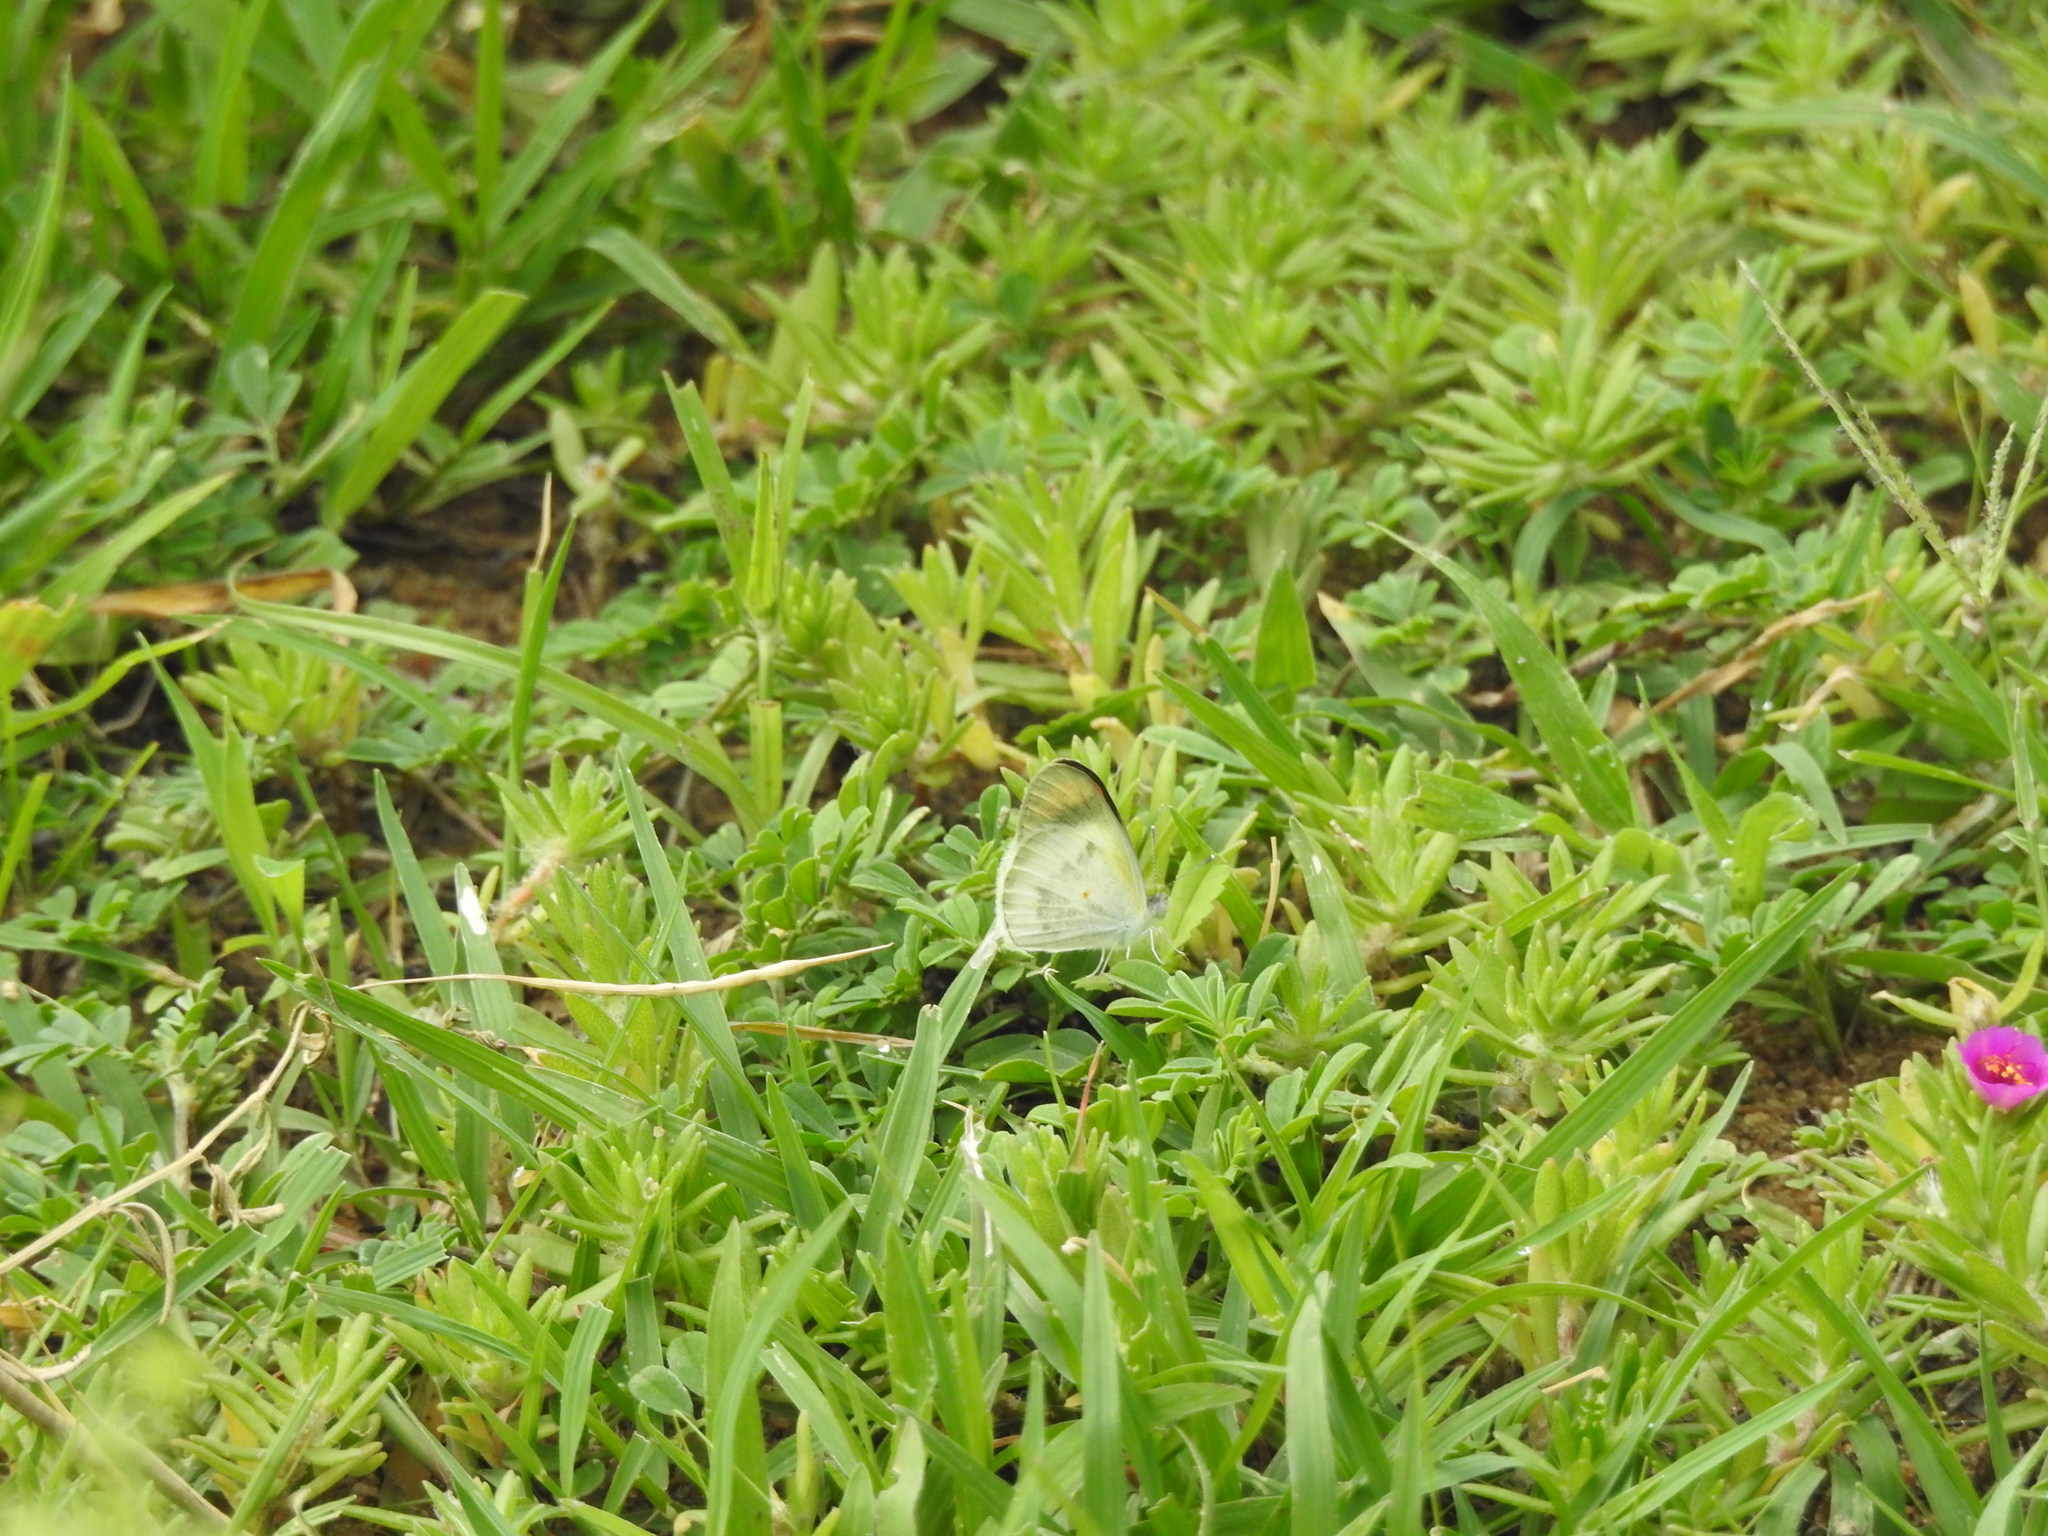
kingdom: Animalia
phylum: Arthropoda
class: Insecta
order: Lepidoptera
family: Pieridae
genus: Colotis
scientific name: Colotis etrida
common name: Little orange tip
